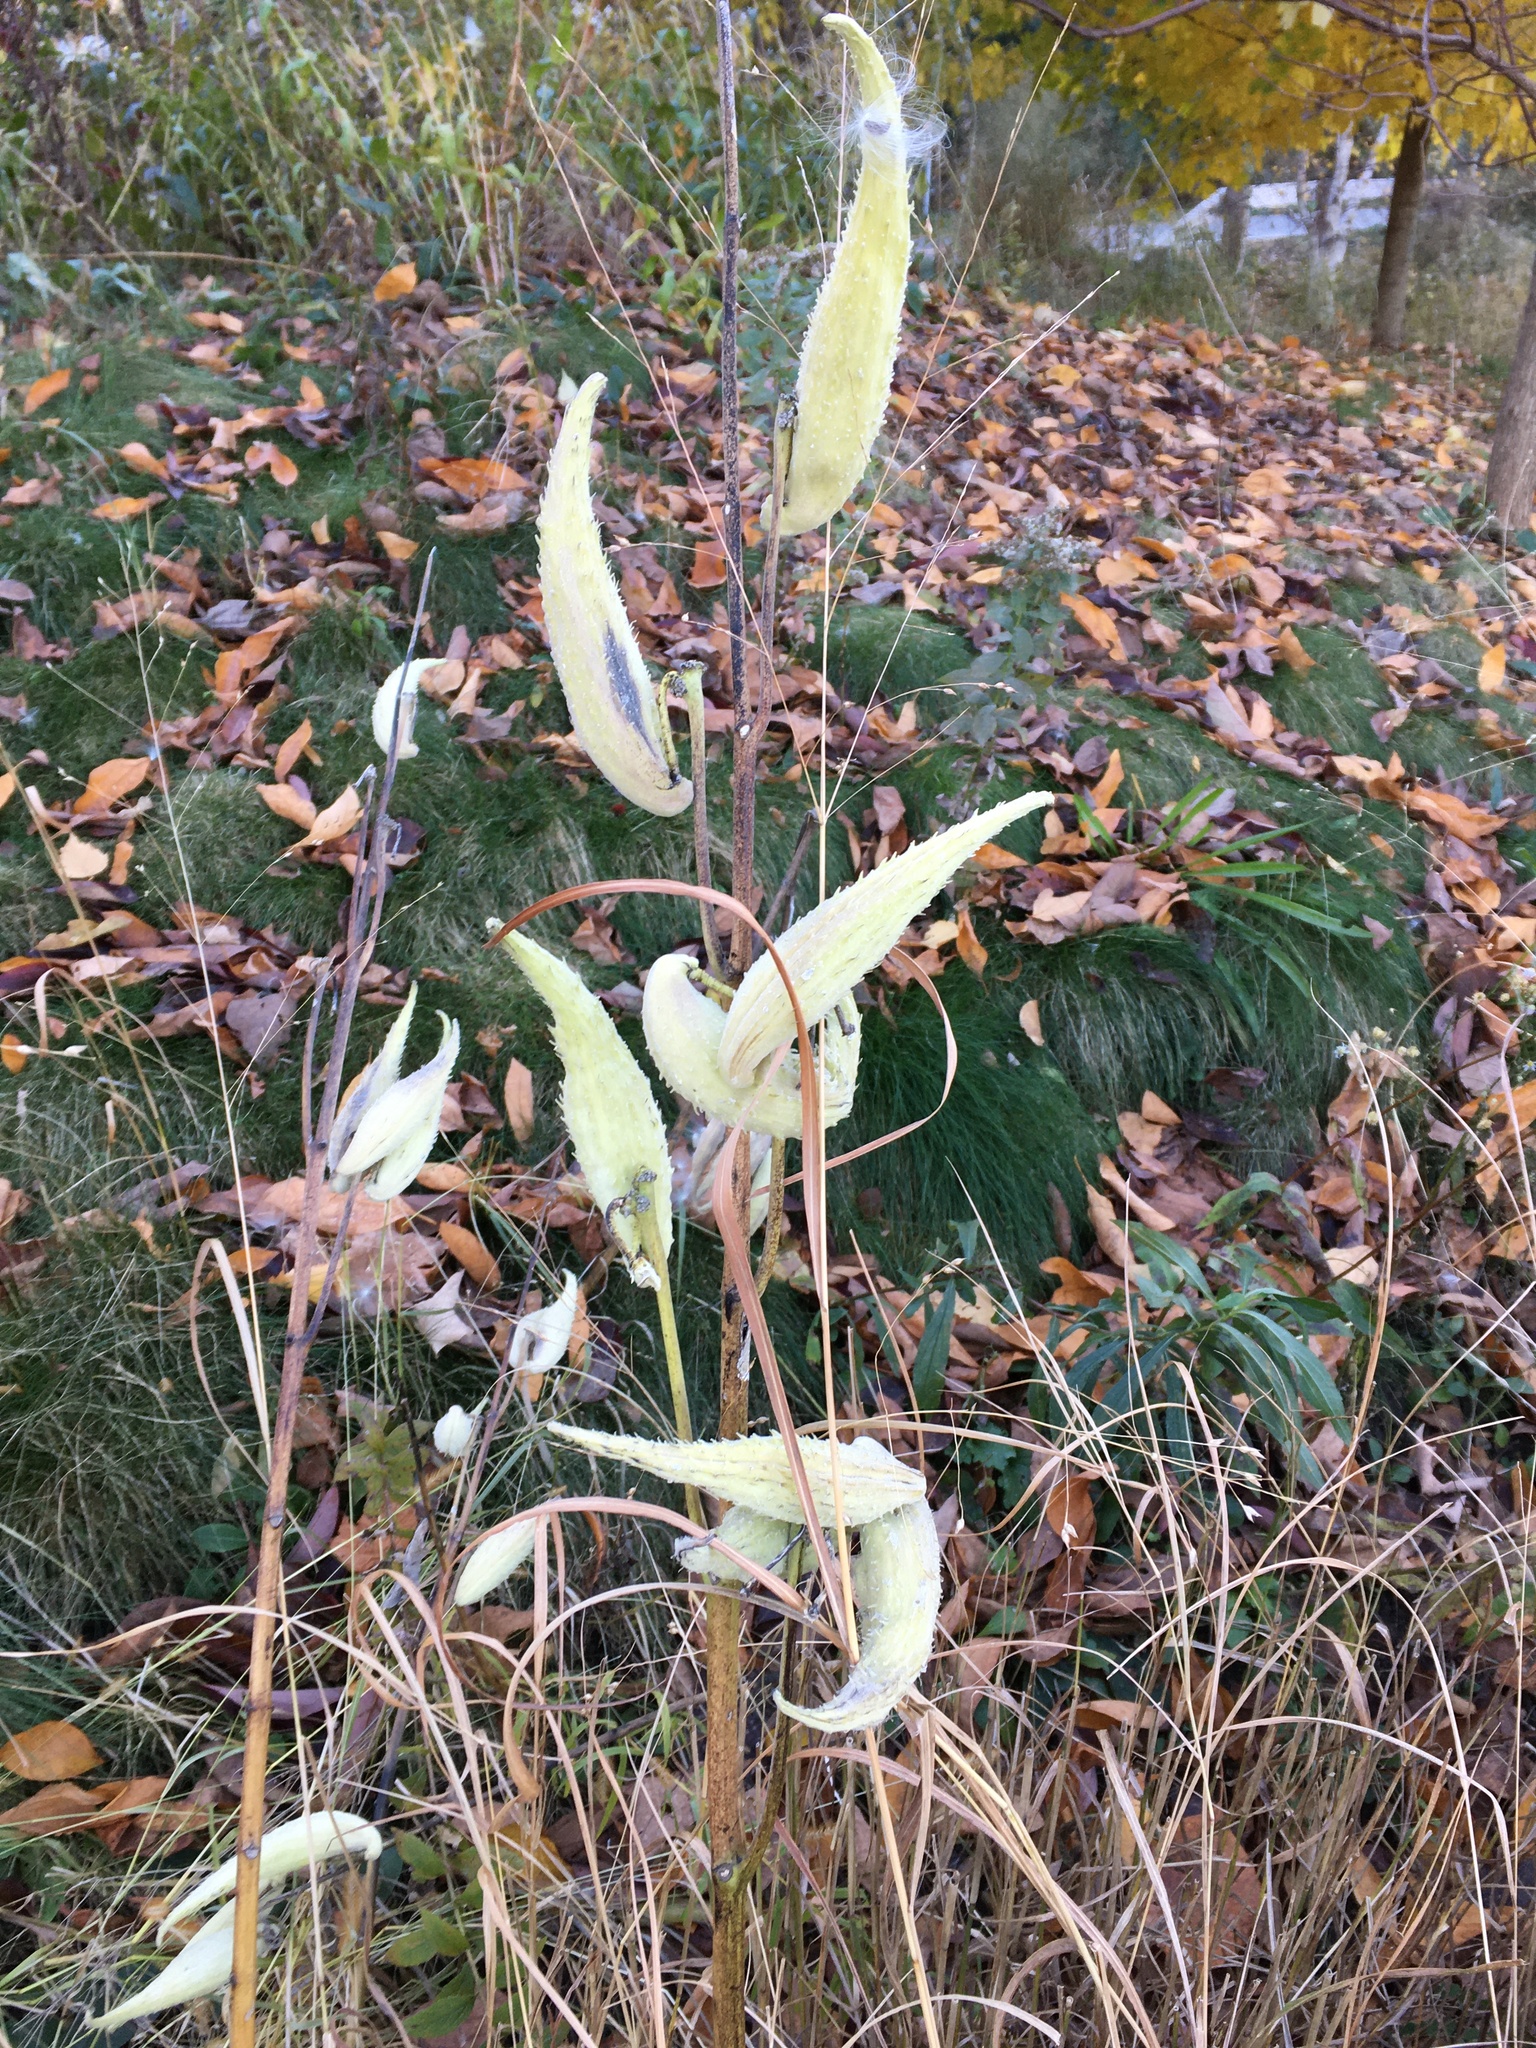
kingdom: Plantae
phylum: Tracheophyta
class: Magnoliopsida
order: Gentianales
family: Apocynaceae
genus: Asclepias
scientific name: Asclepias syriaca
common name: Common milkweed
